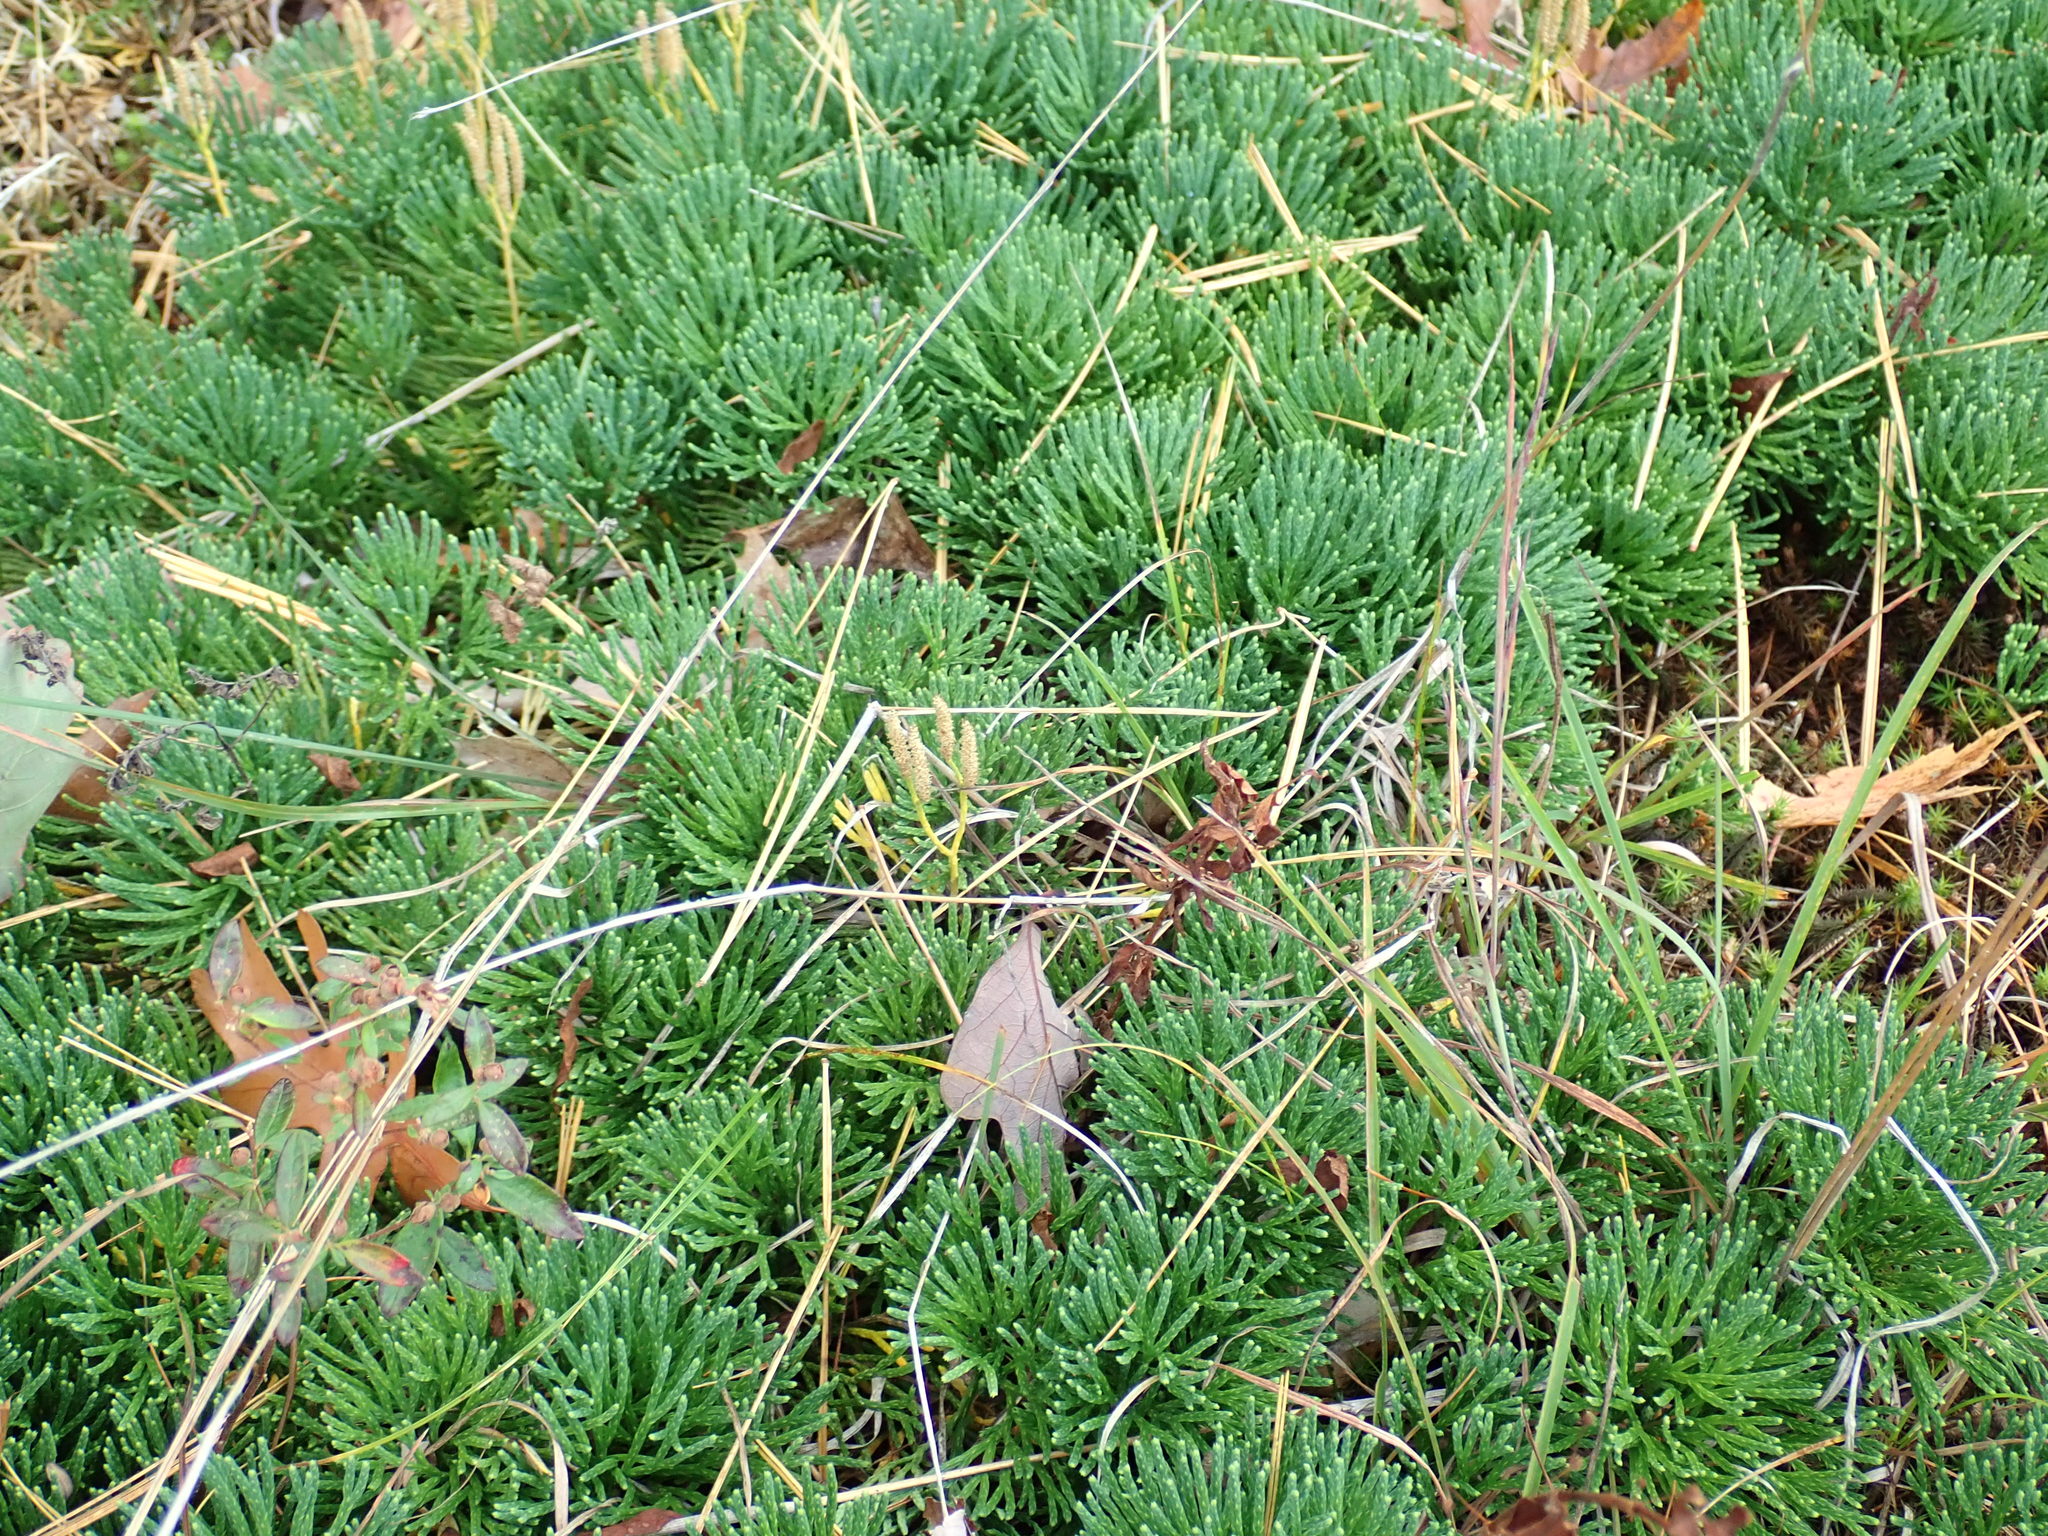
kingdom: Plantae
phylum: Tracheophyta
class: Lycopodiopsida
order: Lycopodiales
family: Lycopodiaceae
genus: Diphasiastrum
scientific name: Diphasiastrum tristachyum
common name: Blue ground-cedar
